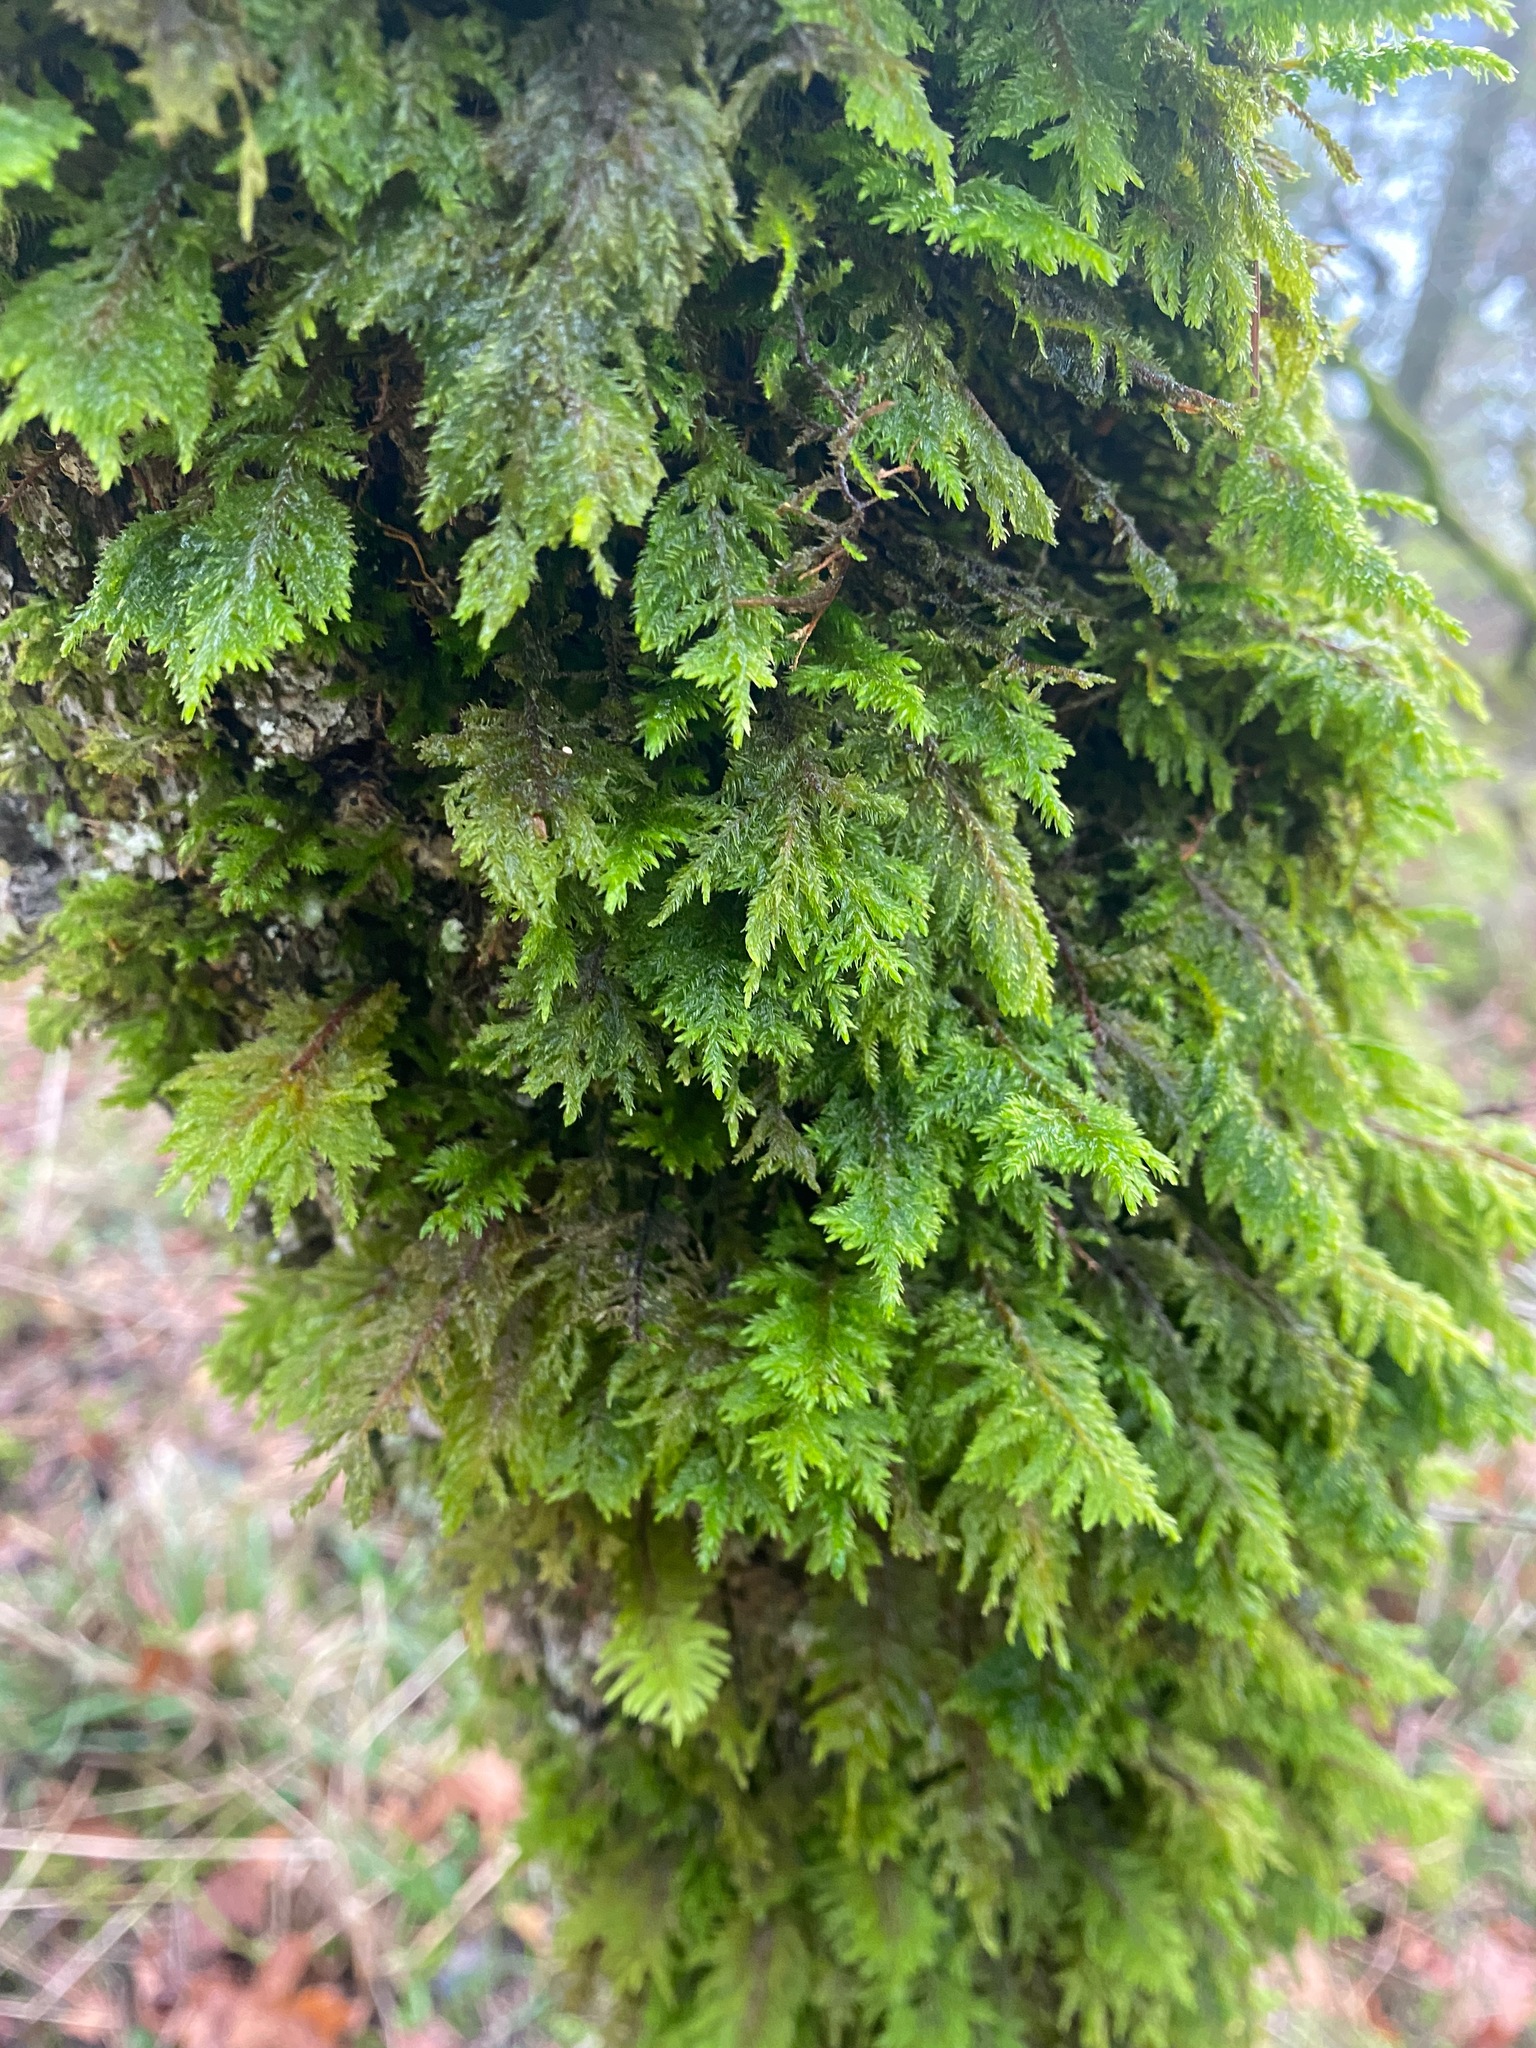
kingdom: Plantae
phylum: Bryophyta
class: Bryopsida
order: Hypnales
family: Cryphaeaceae
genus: Dendroalsia
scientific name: Dendroalsia abietina
